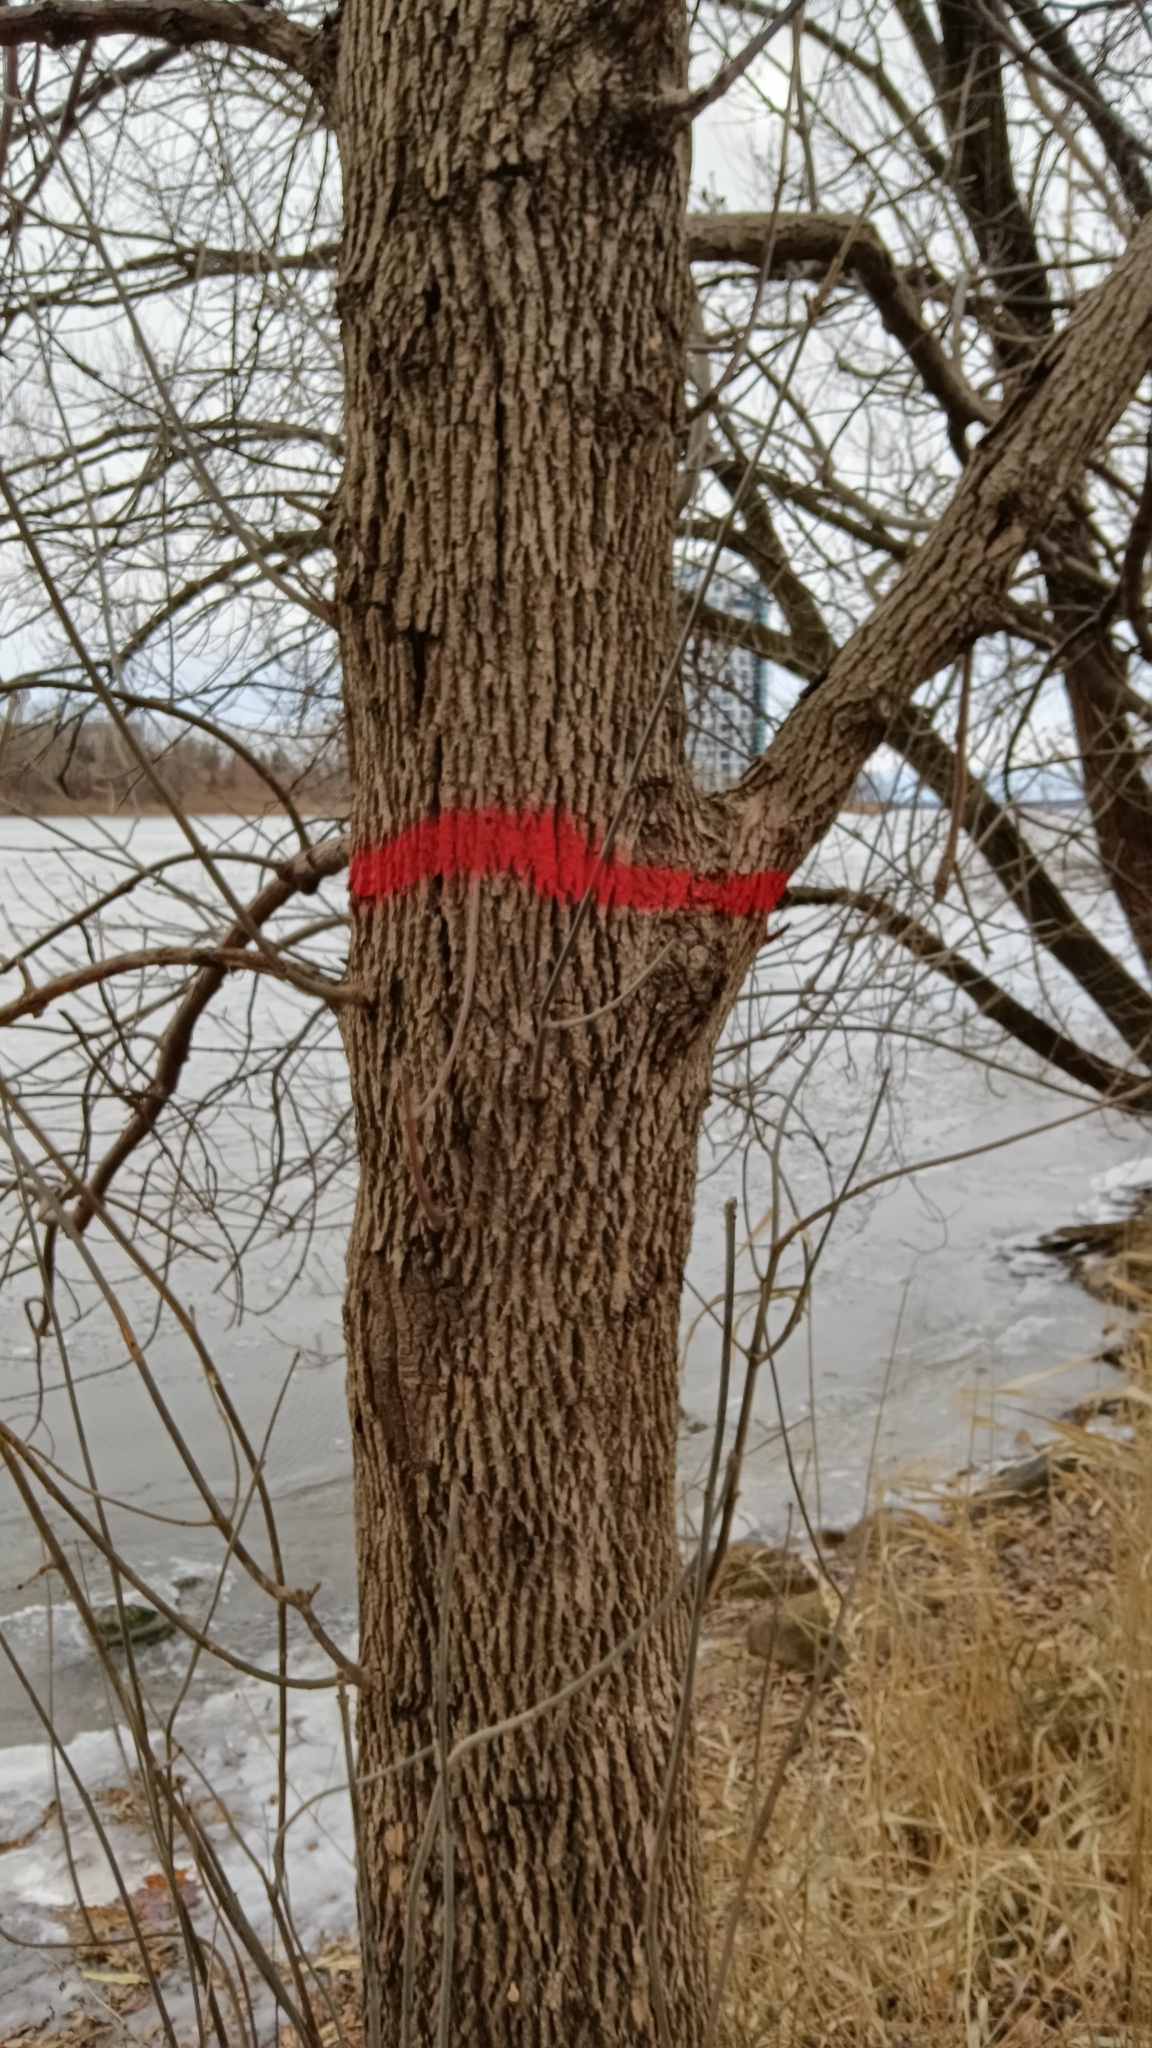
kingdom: Plantae
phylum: Tracheophyta
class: Magnoliopsida
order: Lamiales
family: Oleaceae
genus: Fraxinus
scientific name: Fraxinus pennsylvanica
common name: Green ash
